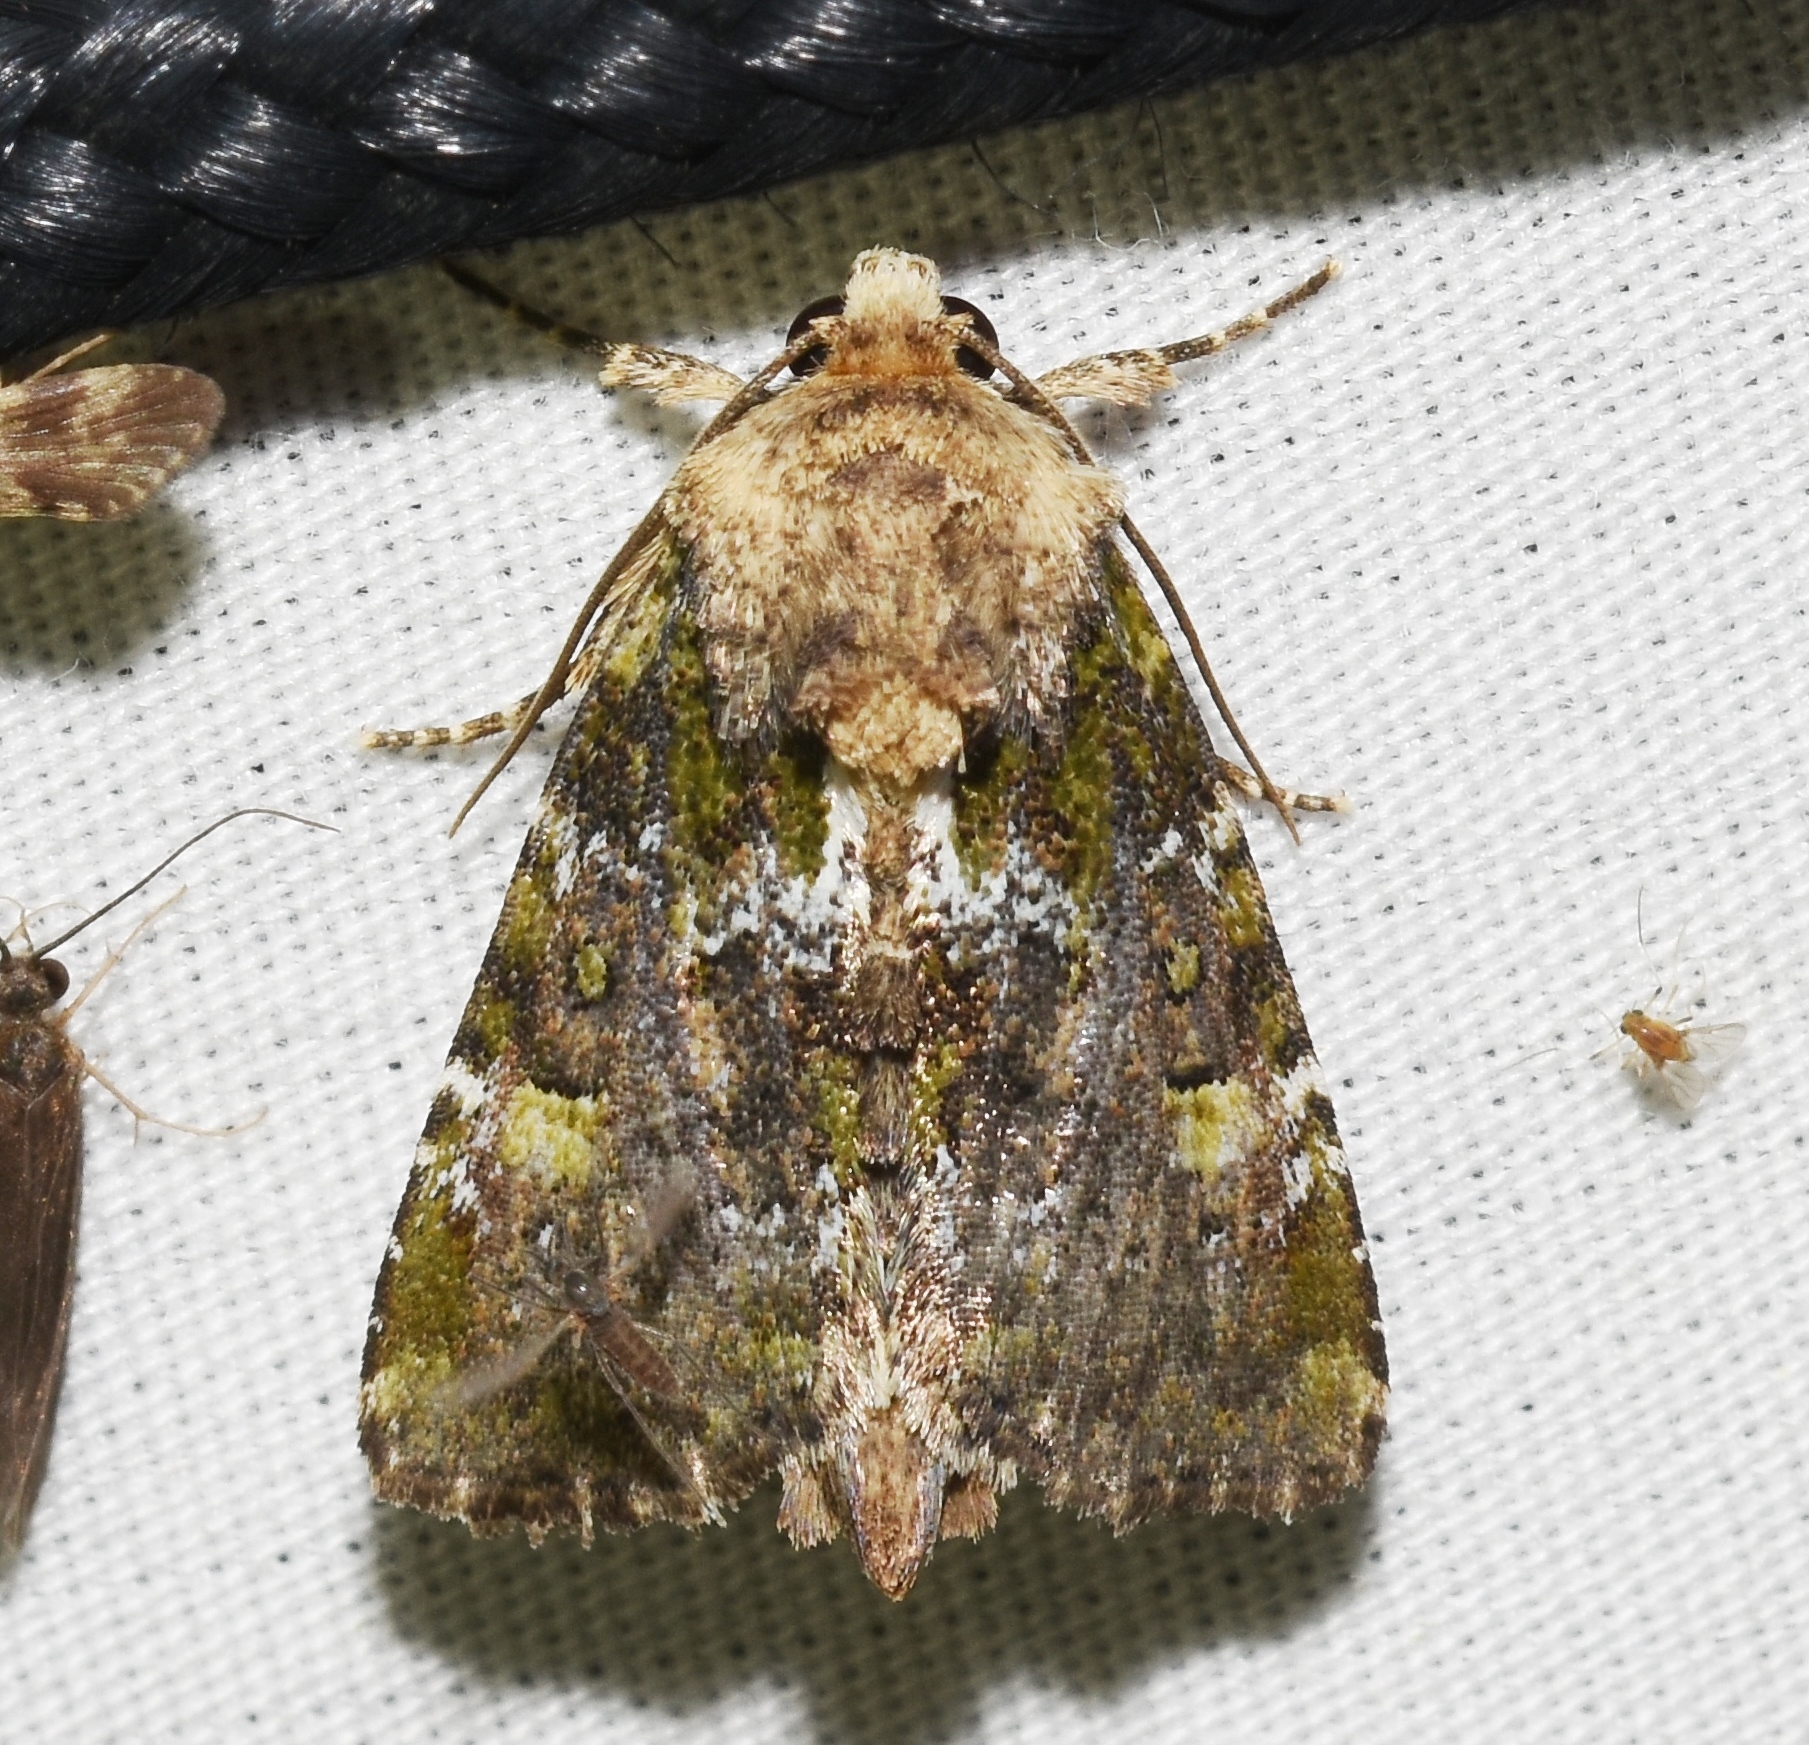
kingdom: Animalia
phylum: Arthropoda
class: Insecta
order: Lepidoptera
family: Noctuidae
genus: Oligia
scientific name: Oligia chlorostigma
